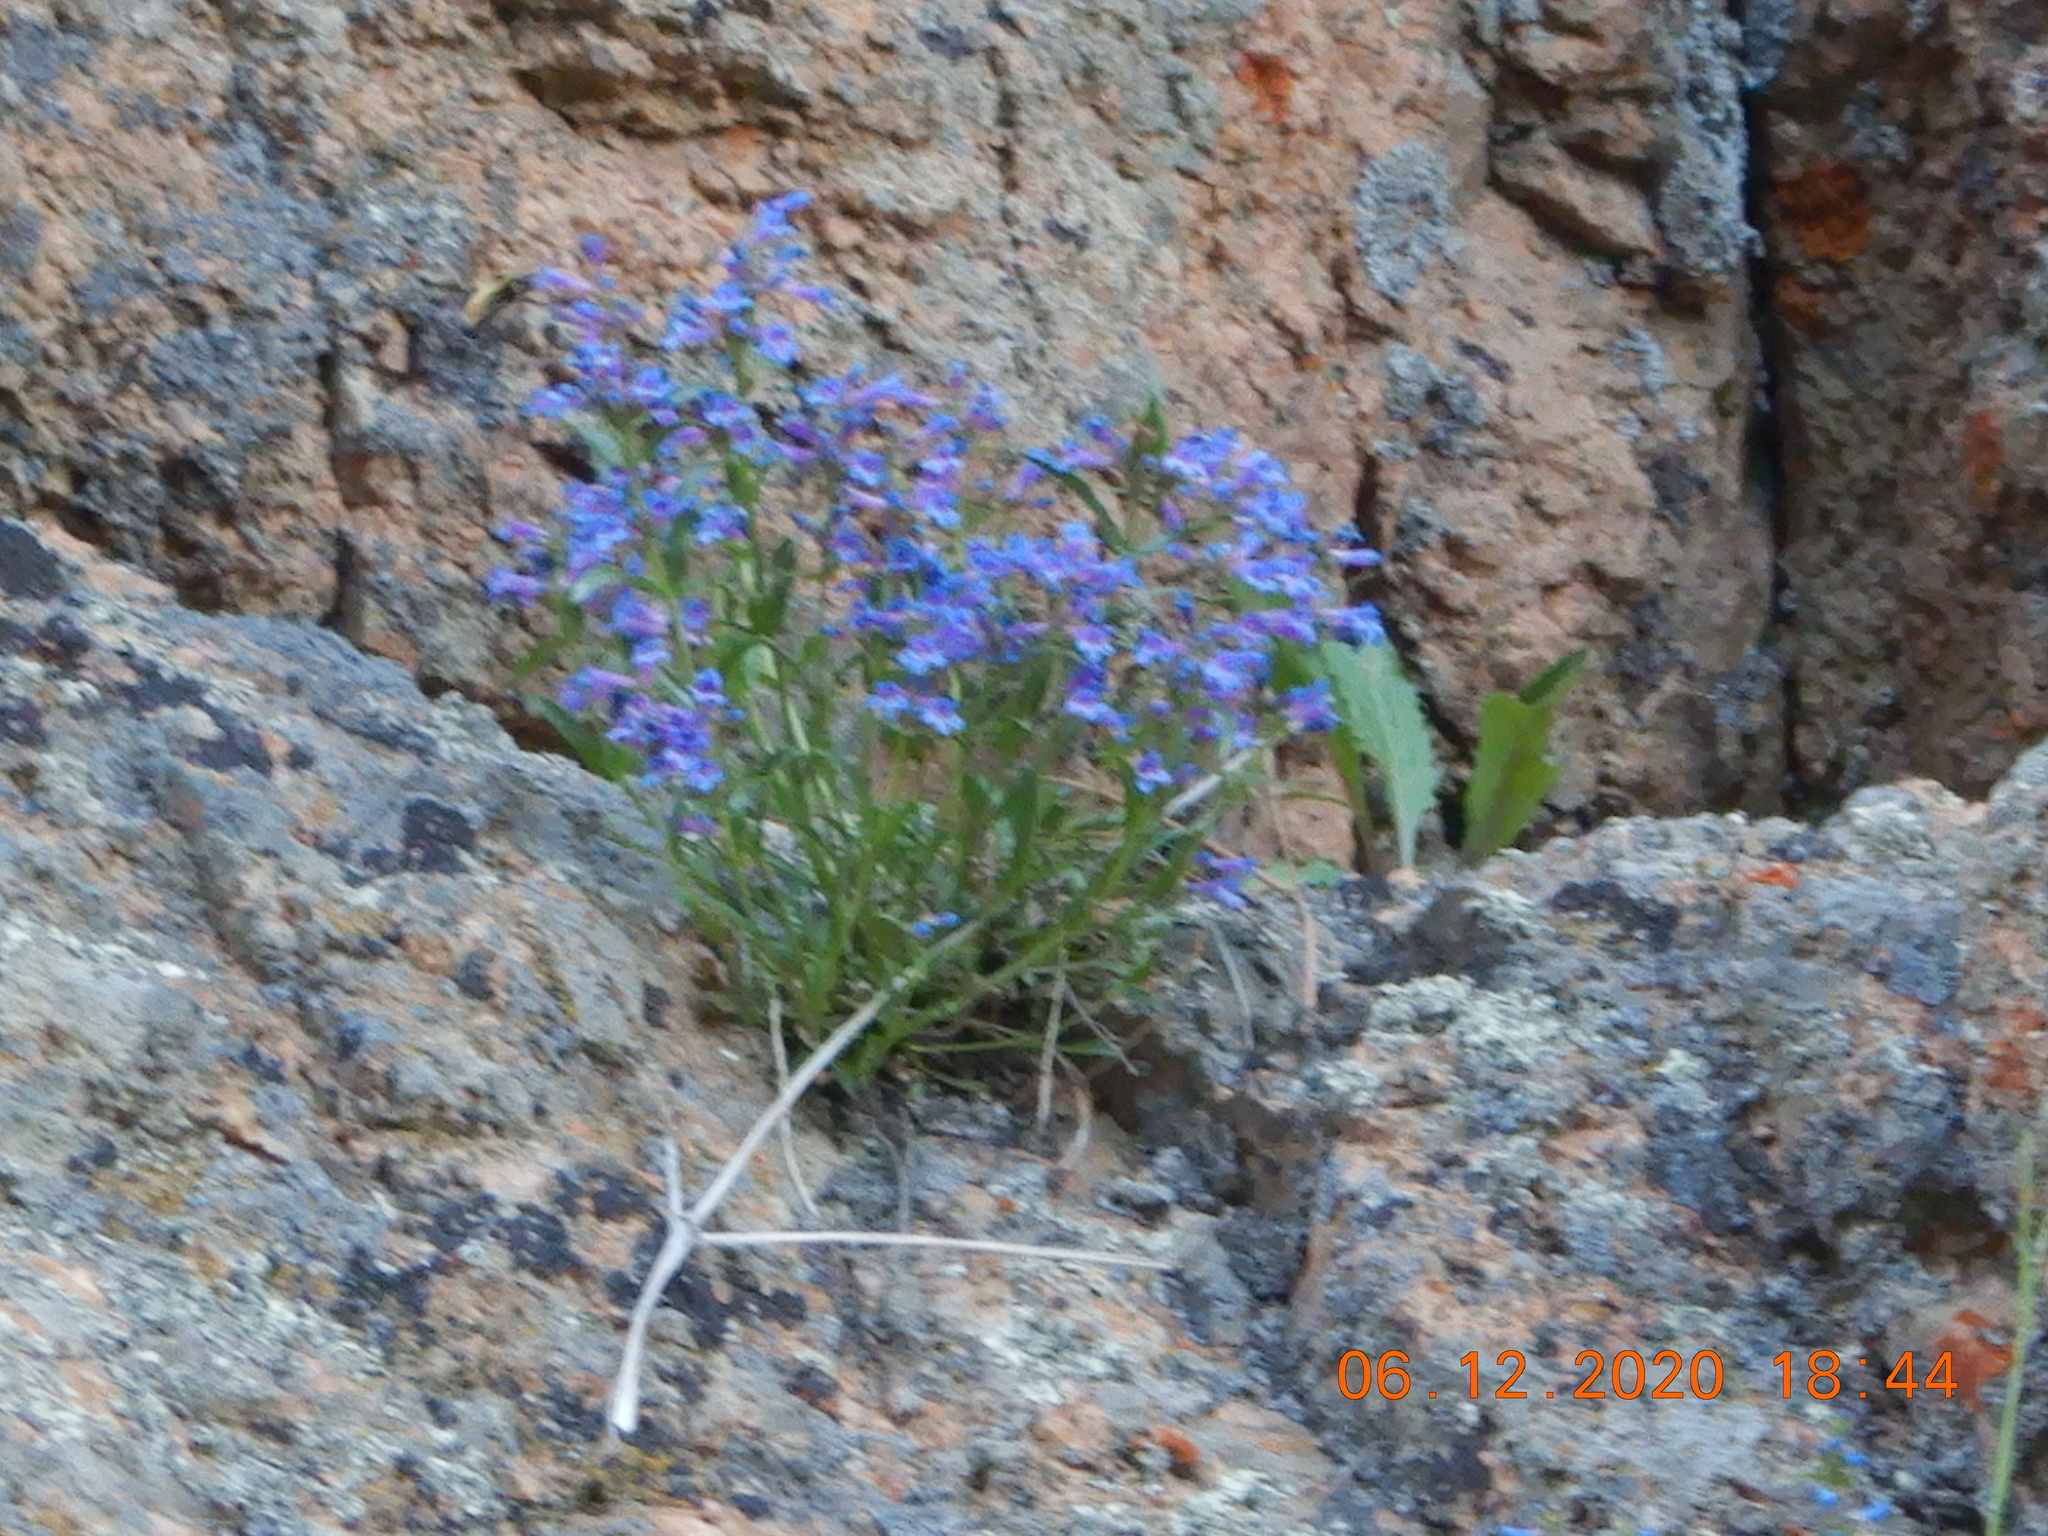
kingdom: Plantae
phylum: Tracheophyta
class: Magnoliopsida
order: Lamiales
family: Plantaginaceae
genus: Penstemon
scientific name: Penstemon virens
